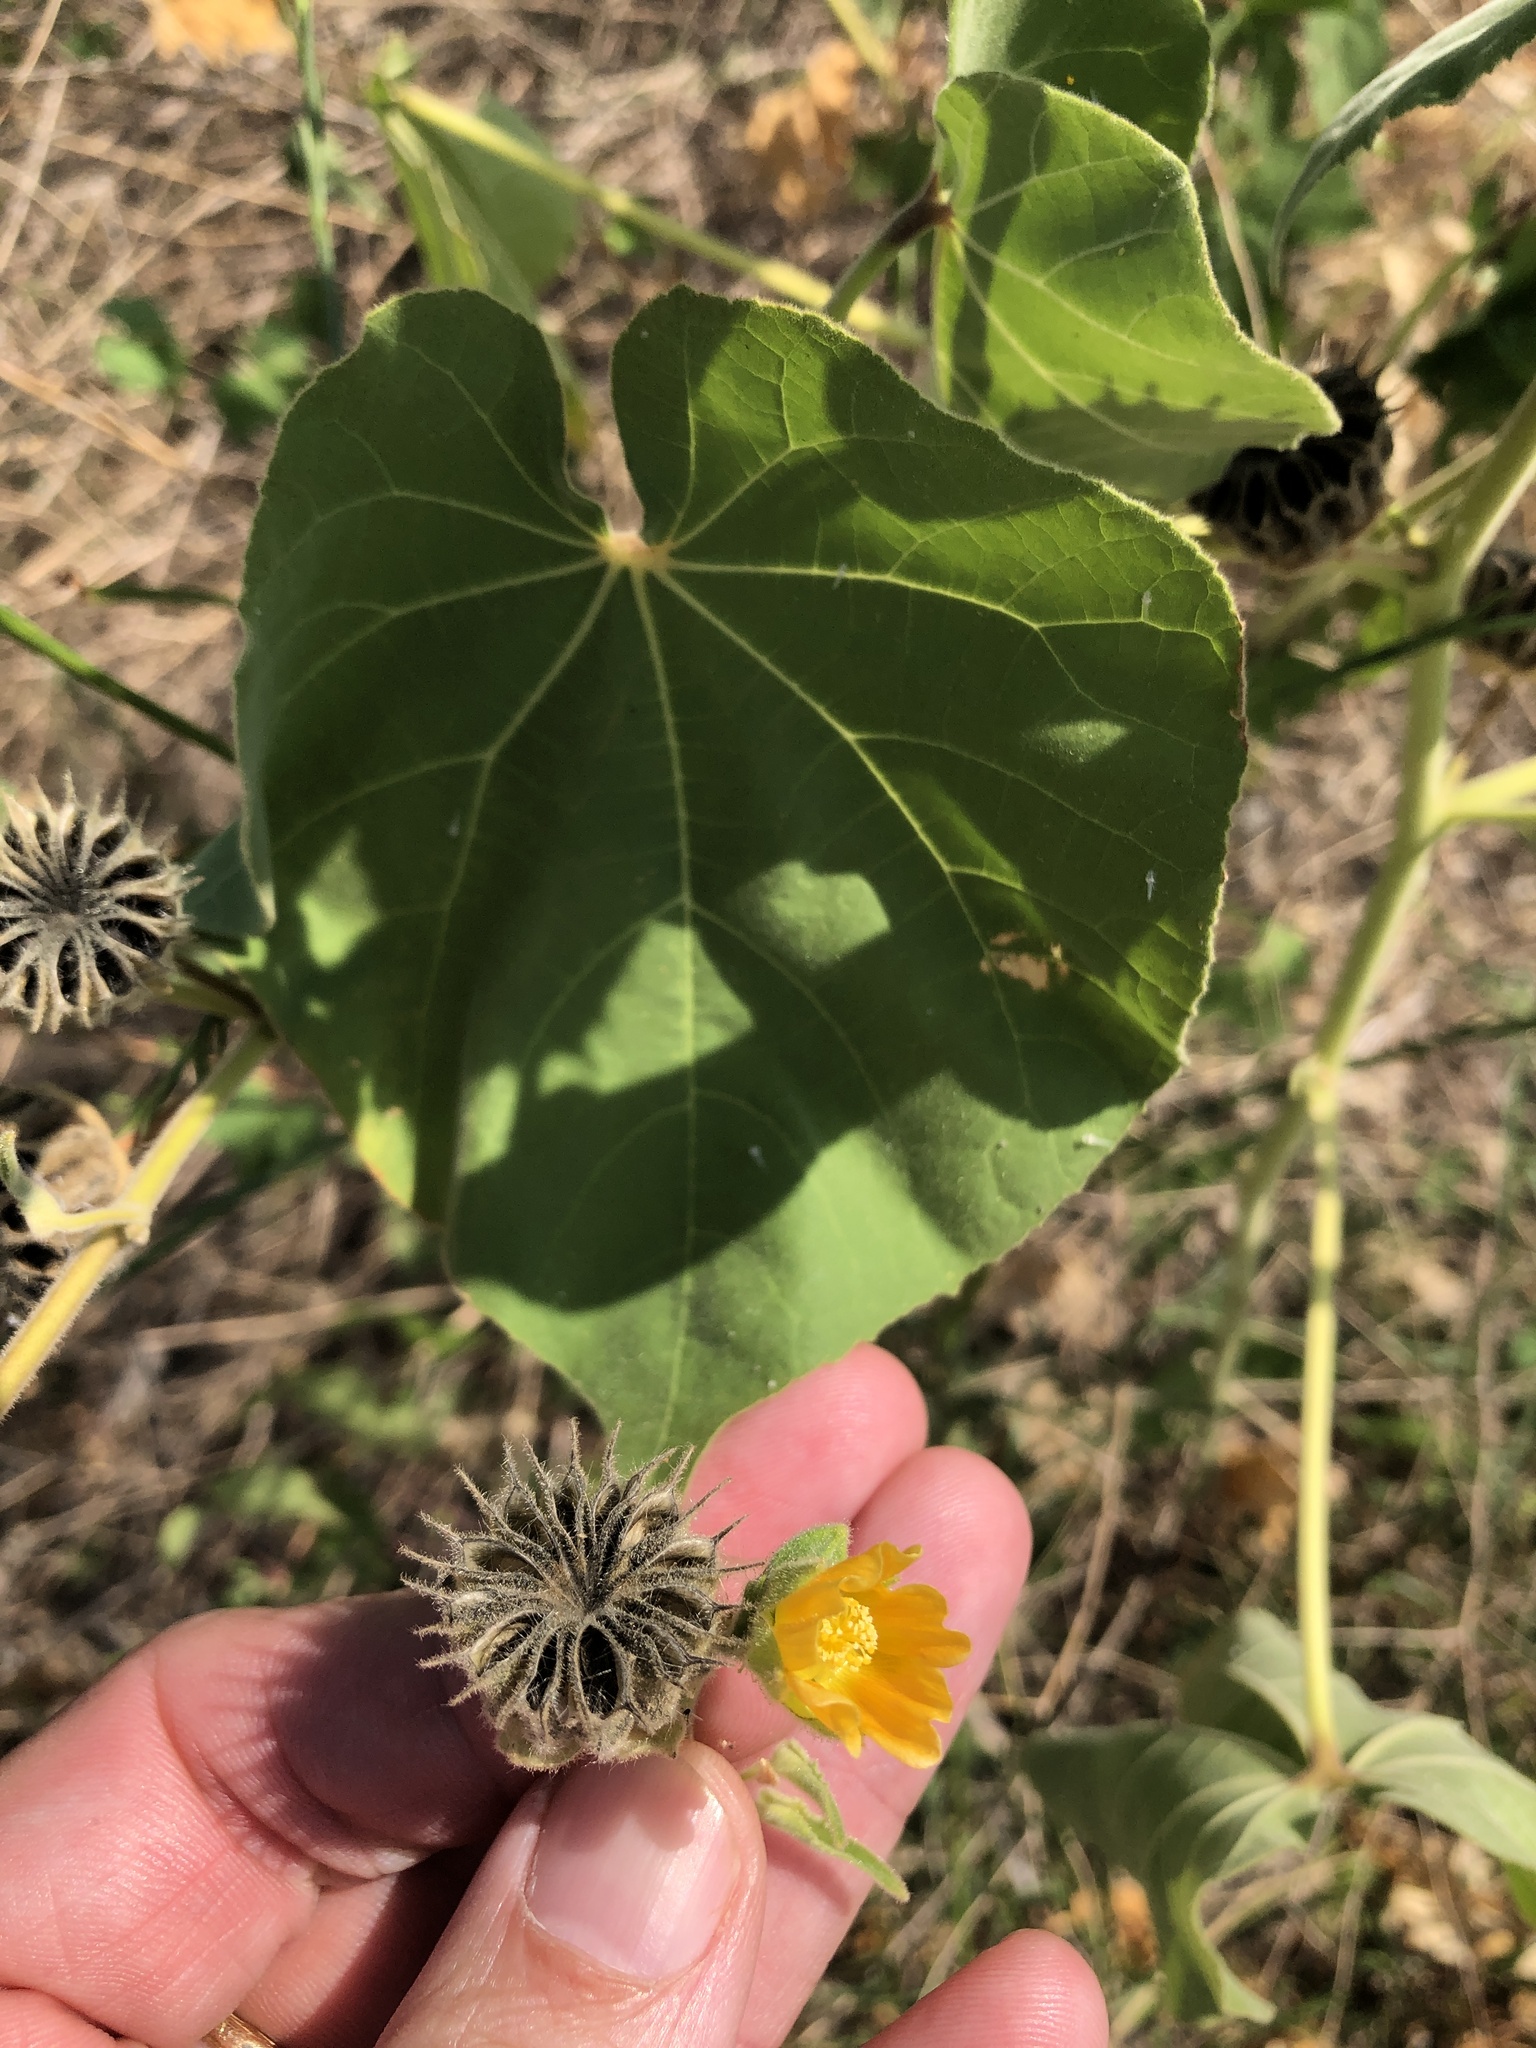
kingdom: Plantae
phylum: Tracheophyta
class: Magnoliopsida
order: Malvales
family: Malvaceae
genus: Abutilon
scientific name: Abutilon theophrasti
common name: Velvetleaf
